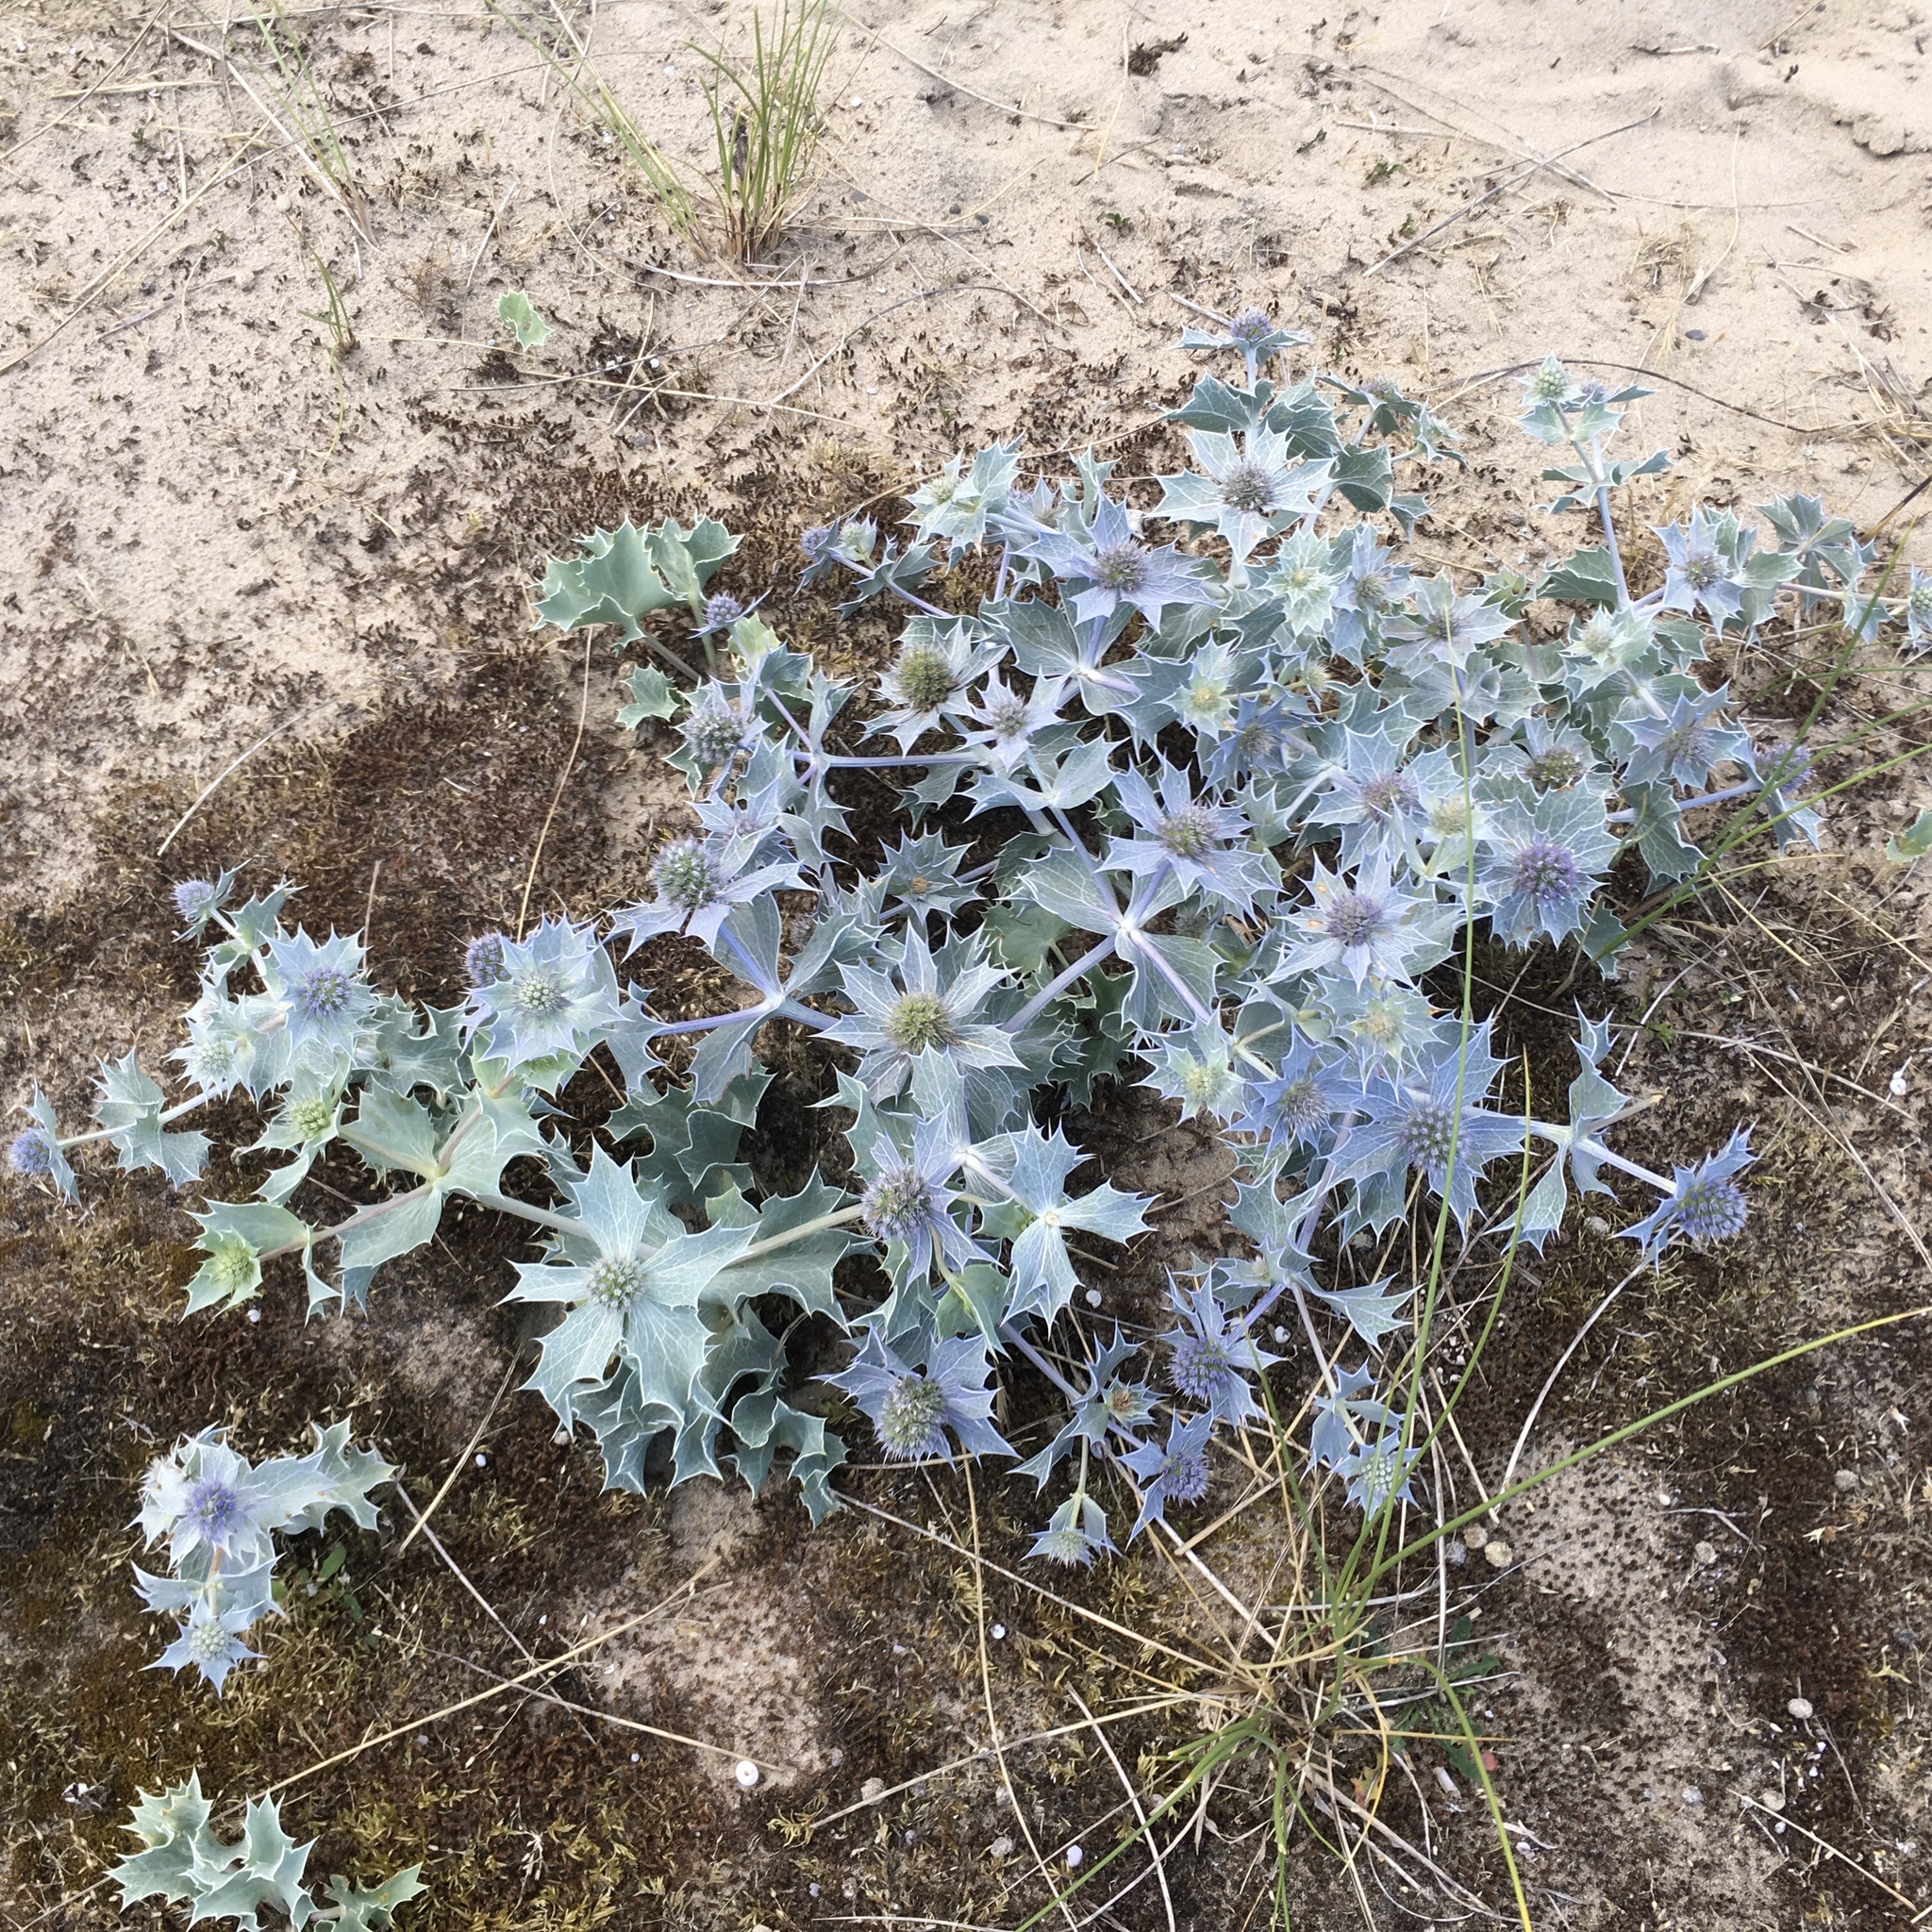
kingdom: Plantae
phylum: Tracheophyta
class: Magnoliopsida
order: Apiales
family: Apiaceae
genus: Eryngium
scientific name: Eryngium maritimum
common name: Sea-holly
